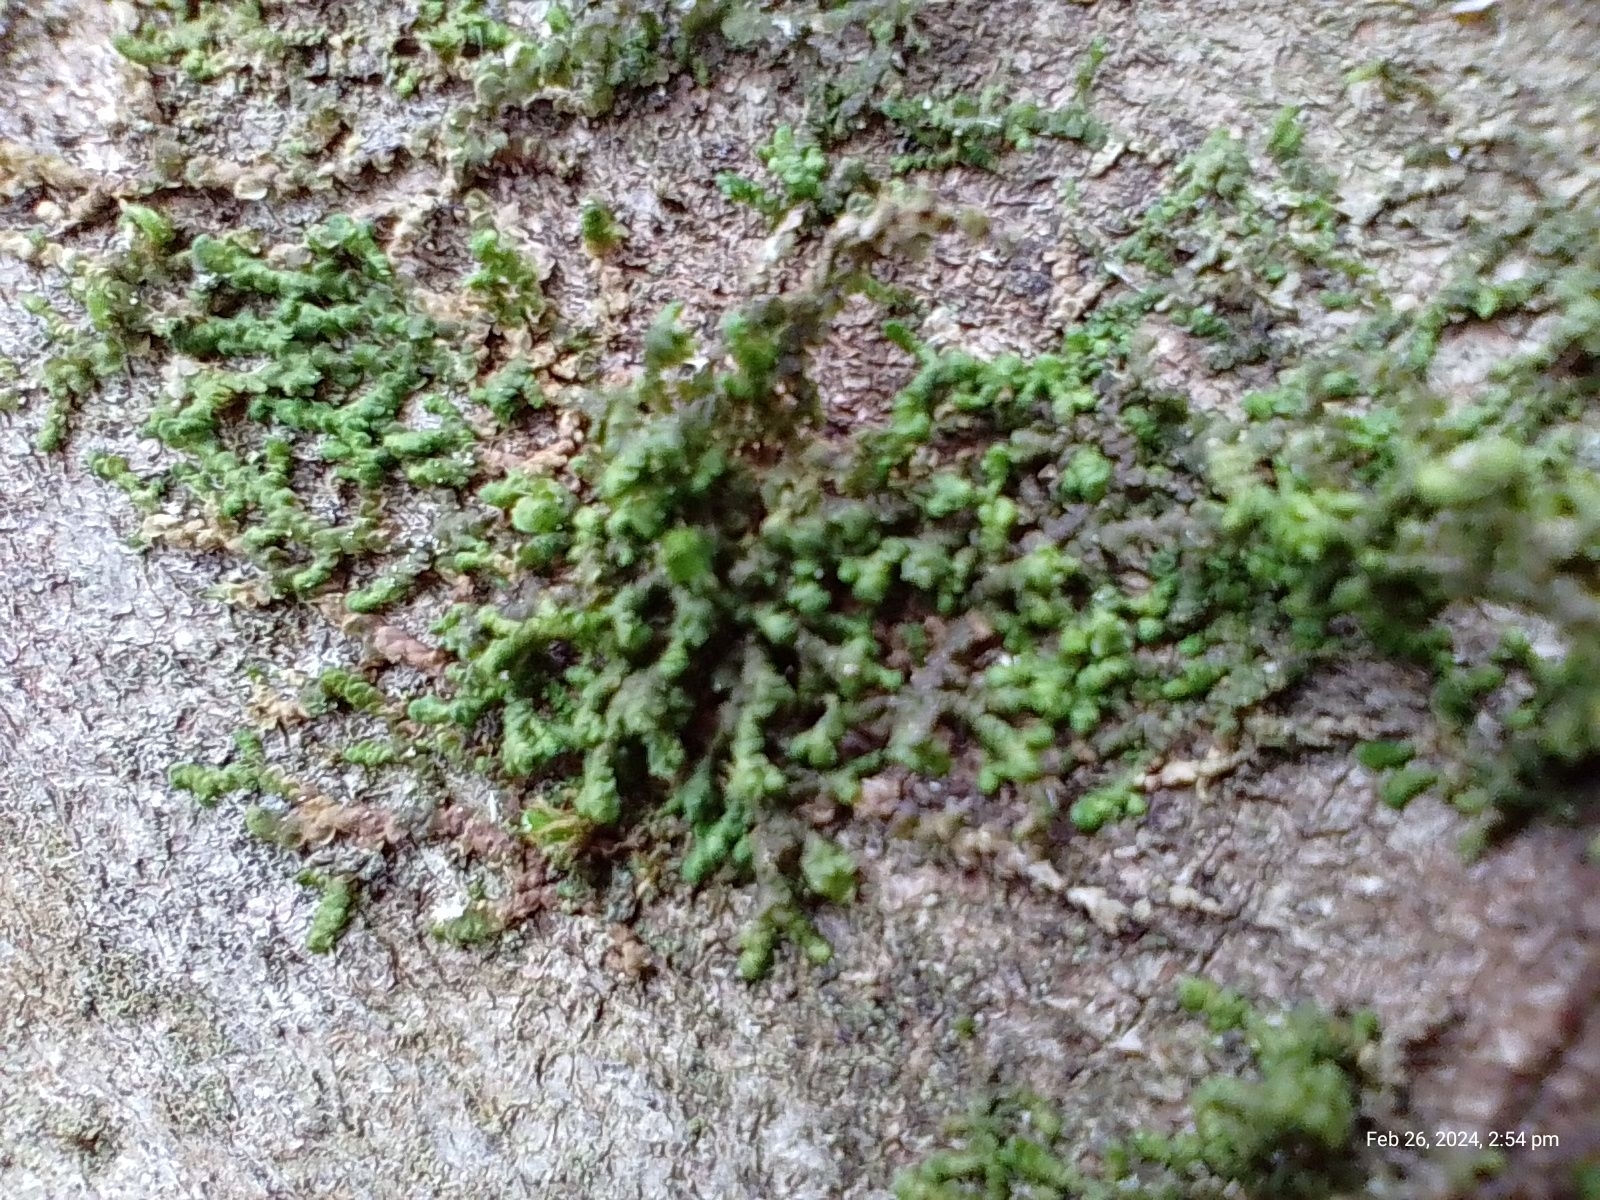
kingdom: Plantae
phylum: Marchantiophyta
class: Jungermanniopsida
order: Porellales
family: Frullaniaceae
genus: Frullania
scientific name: Frullania dilatata
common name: Dilated scalewort
